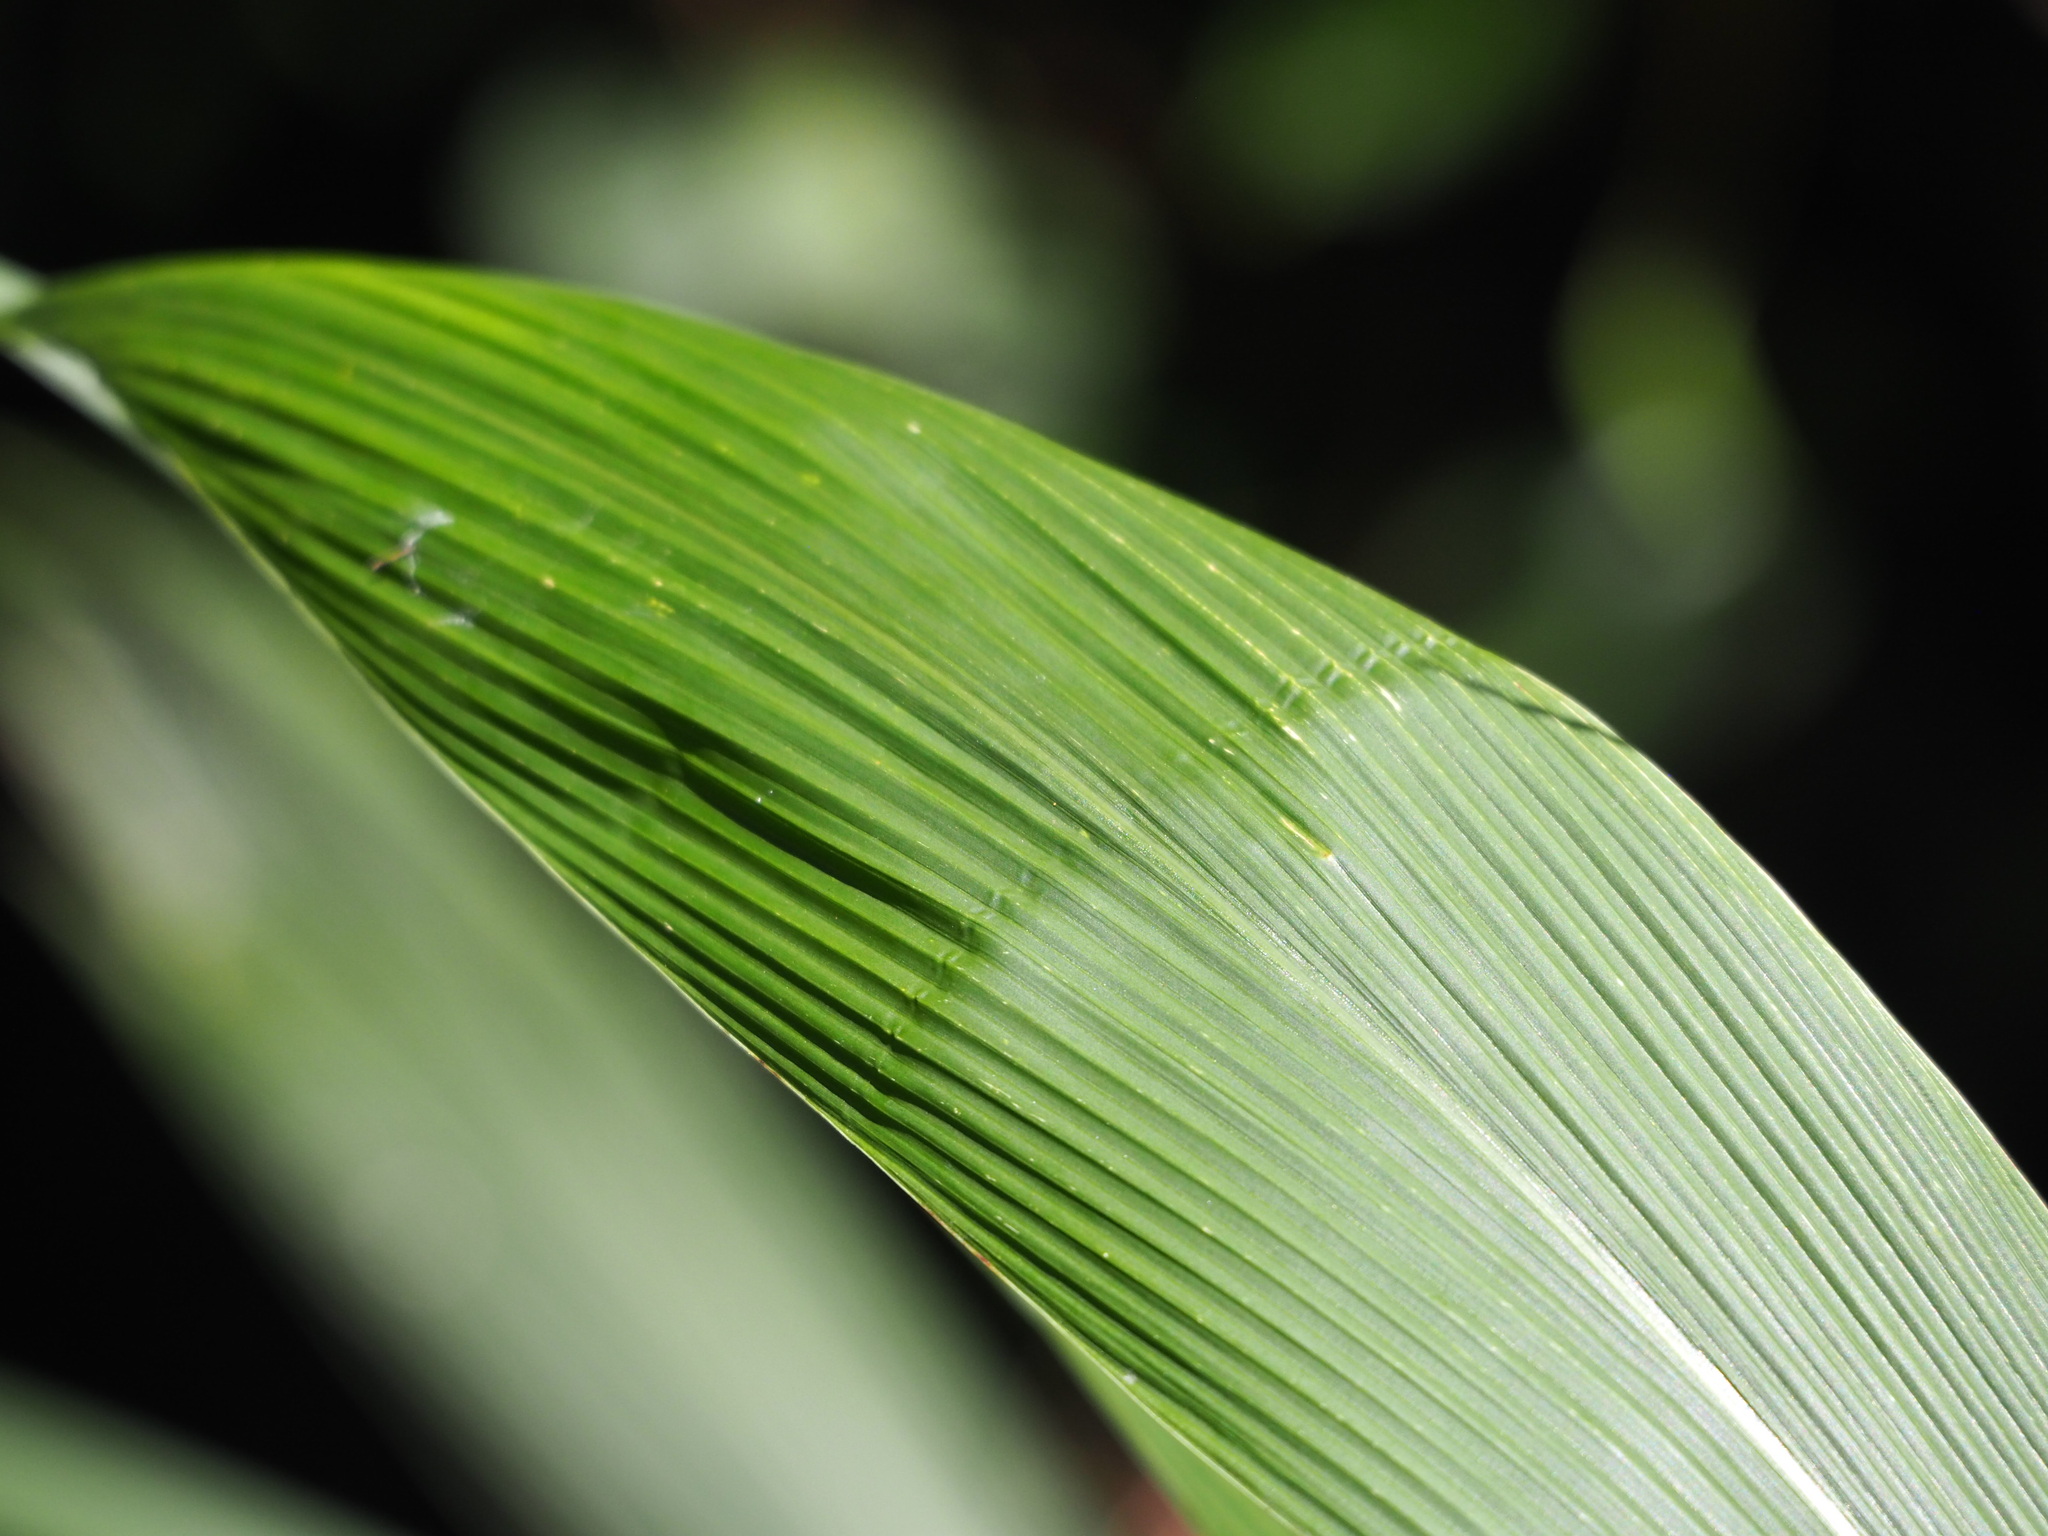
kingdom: Plantae
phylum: Tracheophyta
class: Liliopsida
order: Poales
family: Poaceae
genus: Setaria
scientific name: Setaria palmifolia
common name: Broadleaved bristlegrass
